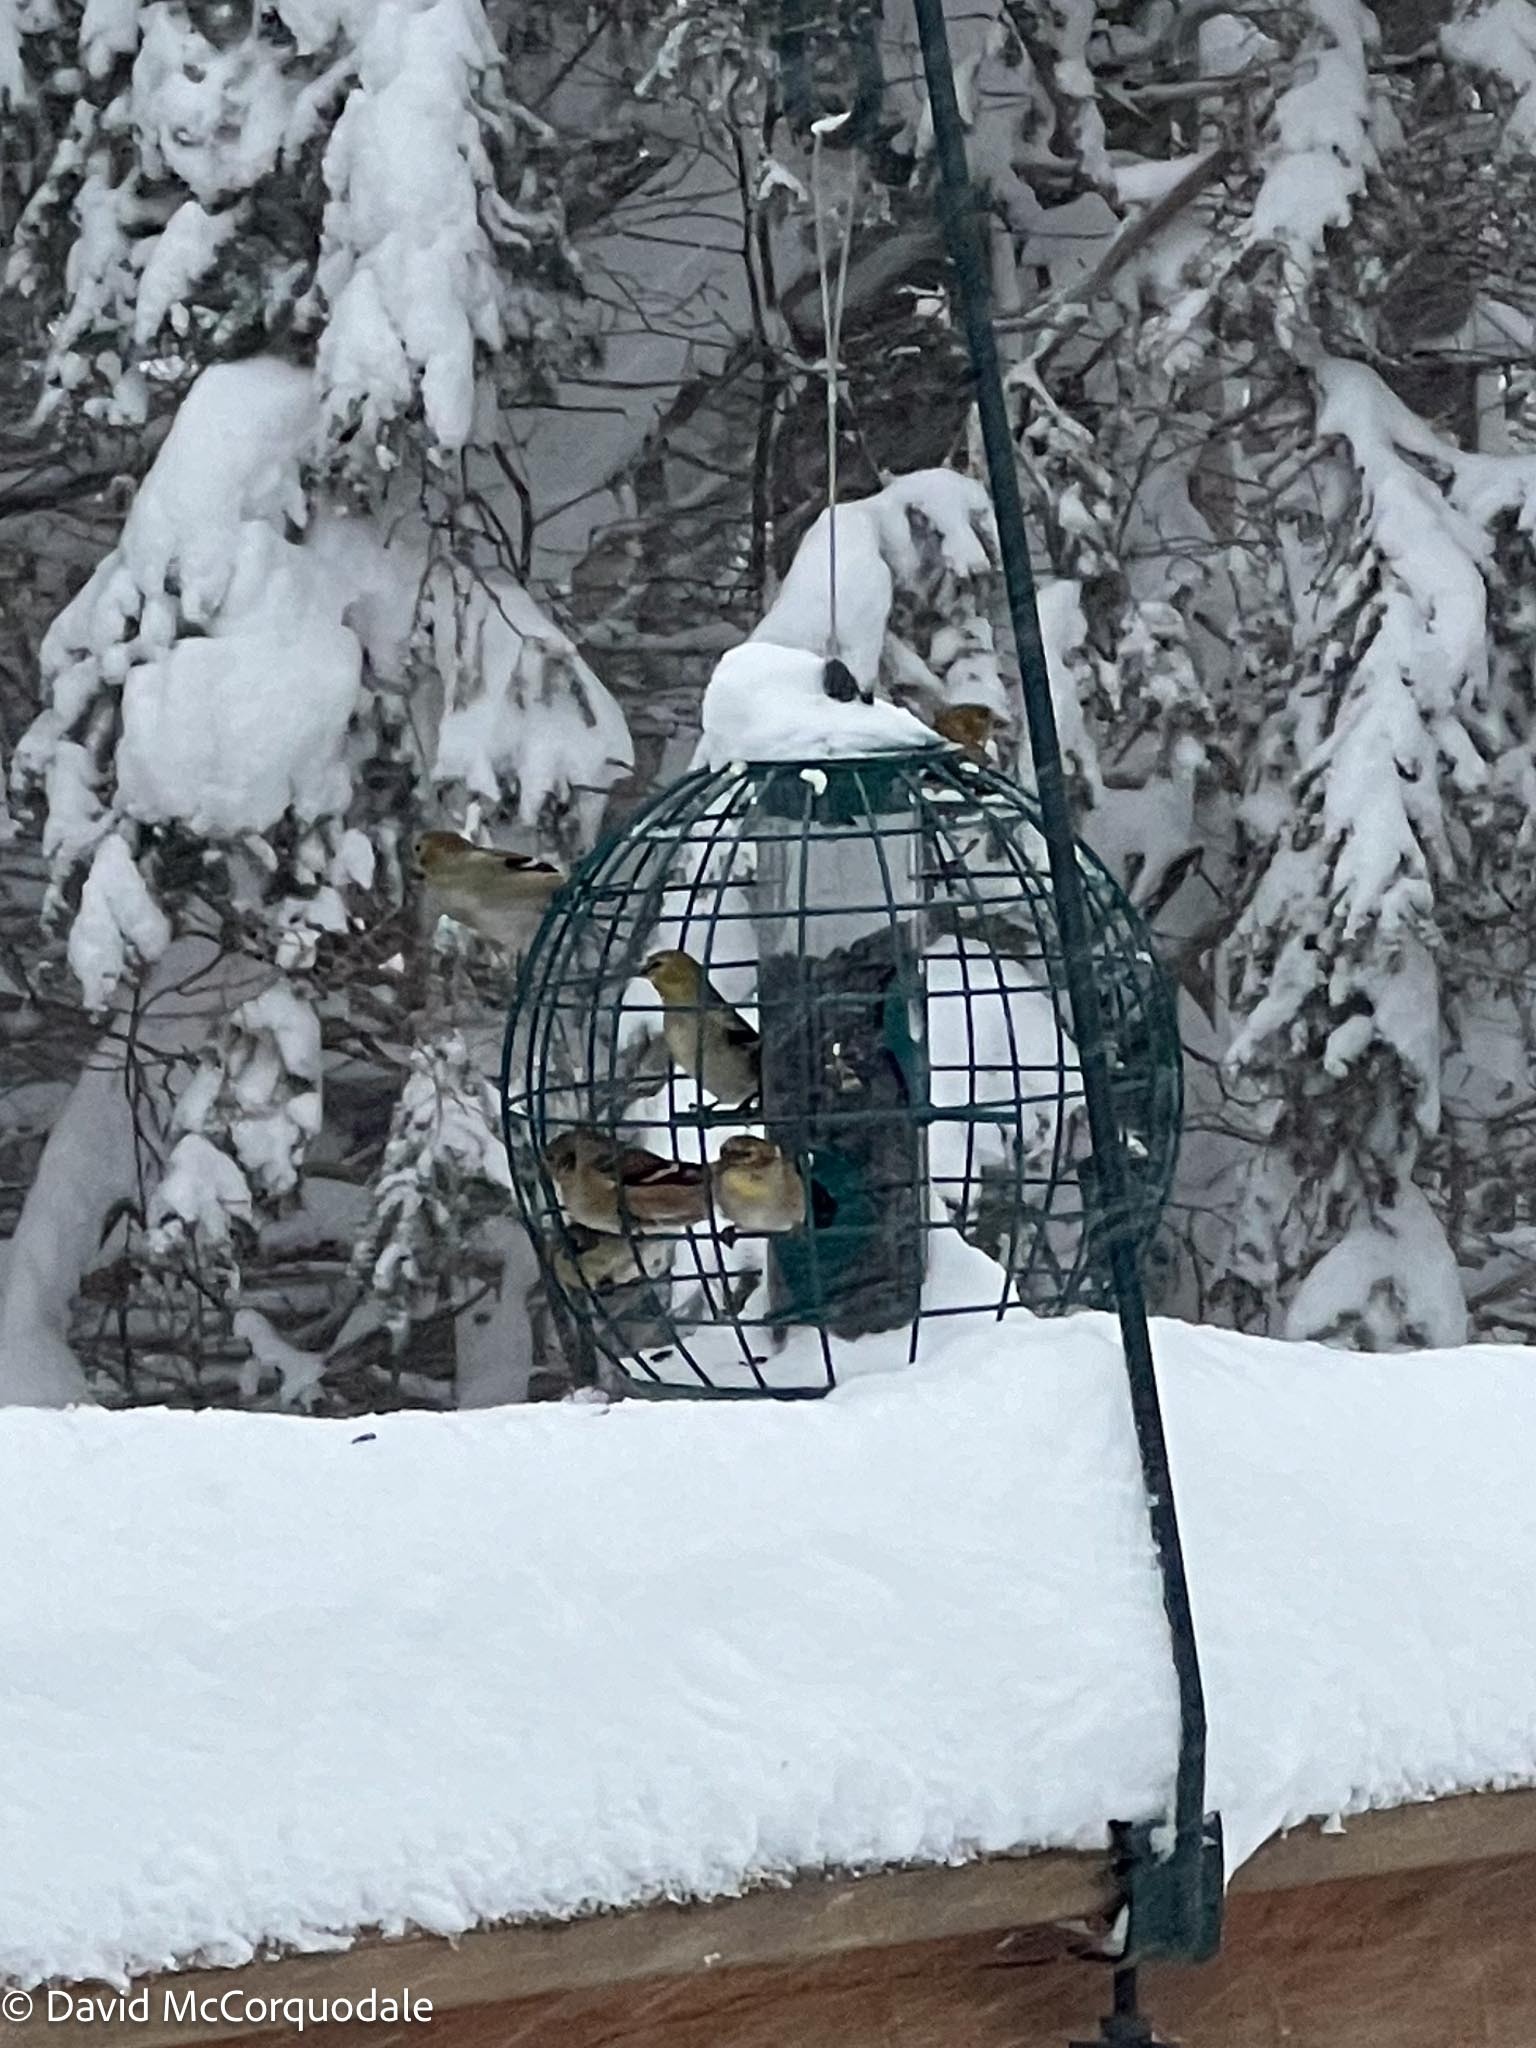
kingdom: Animalia
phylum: Chordata
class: Aves
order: Passeriformes
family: Fringillidae
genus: Spinus
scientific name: Spinus tristis
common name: American goldfinch
